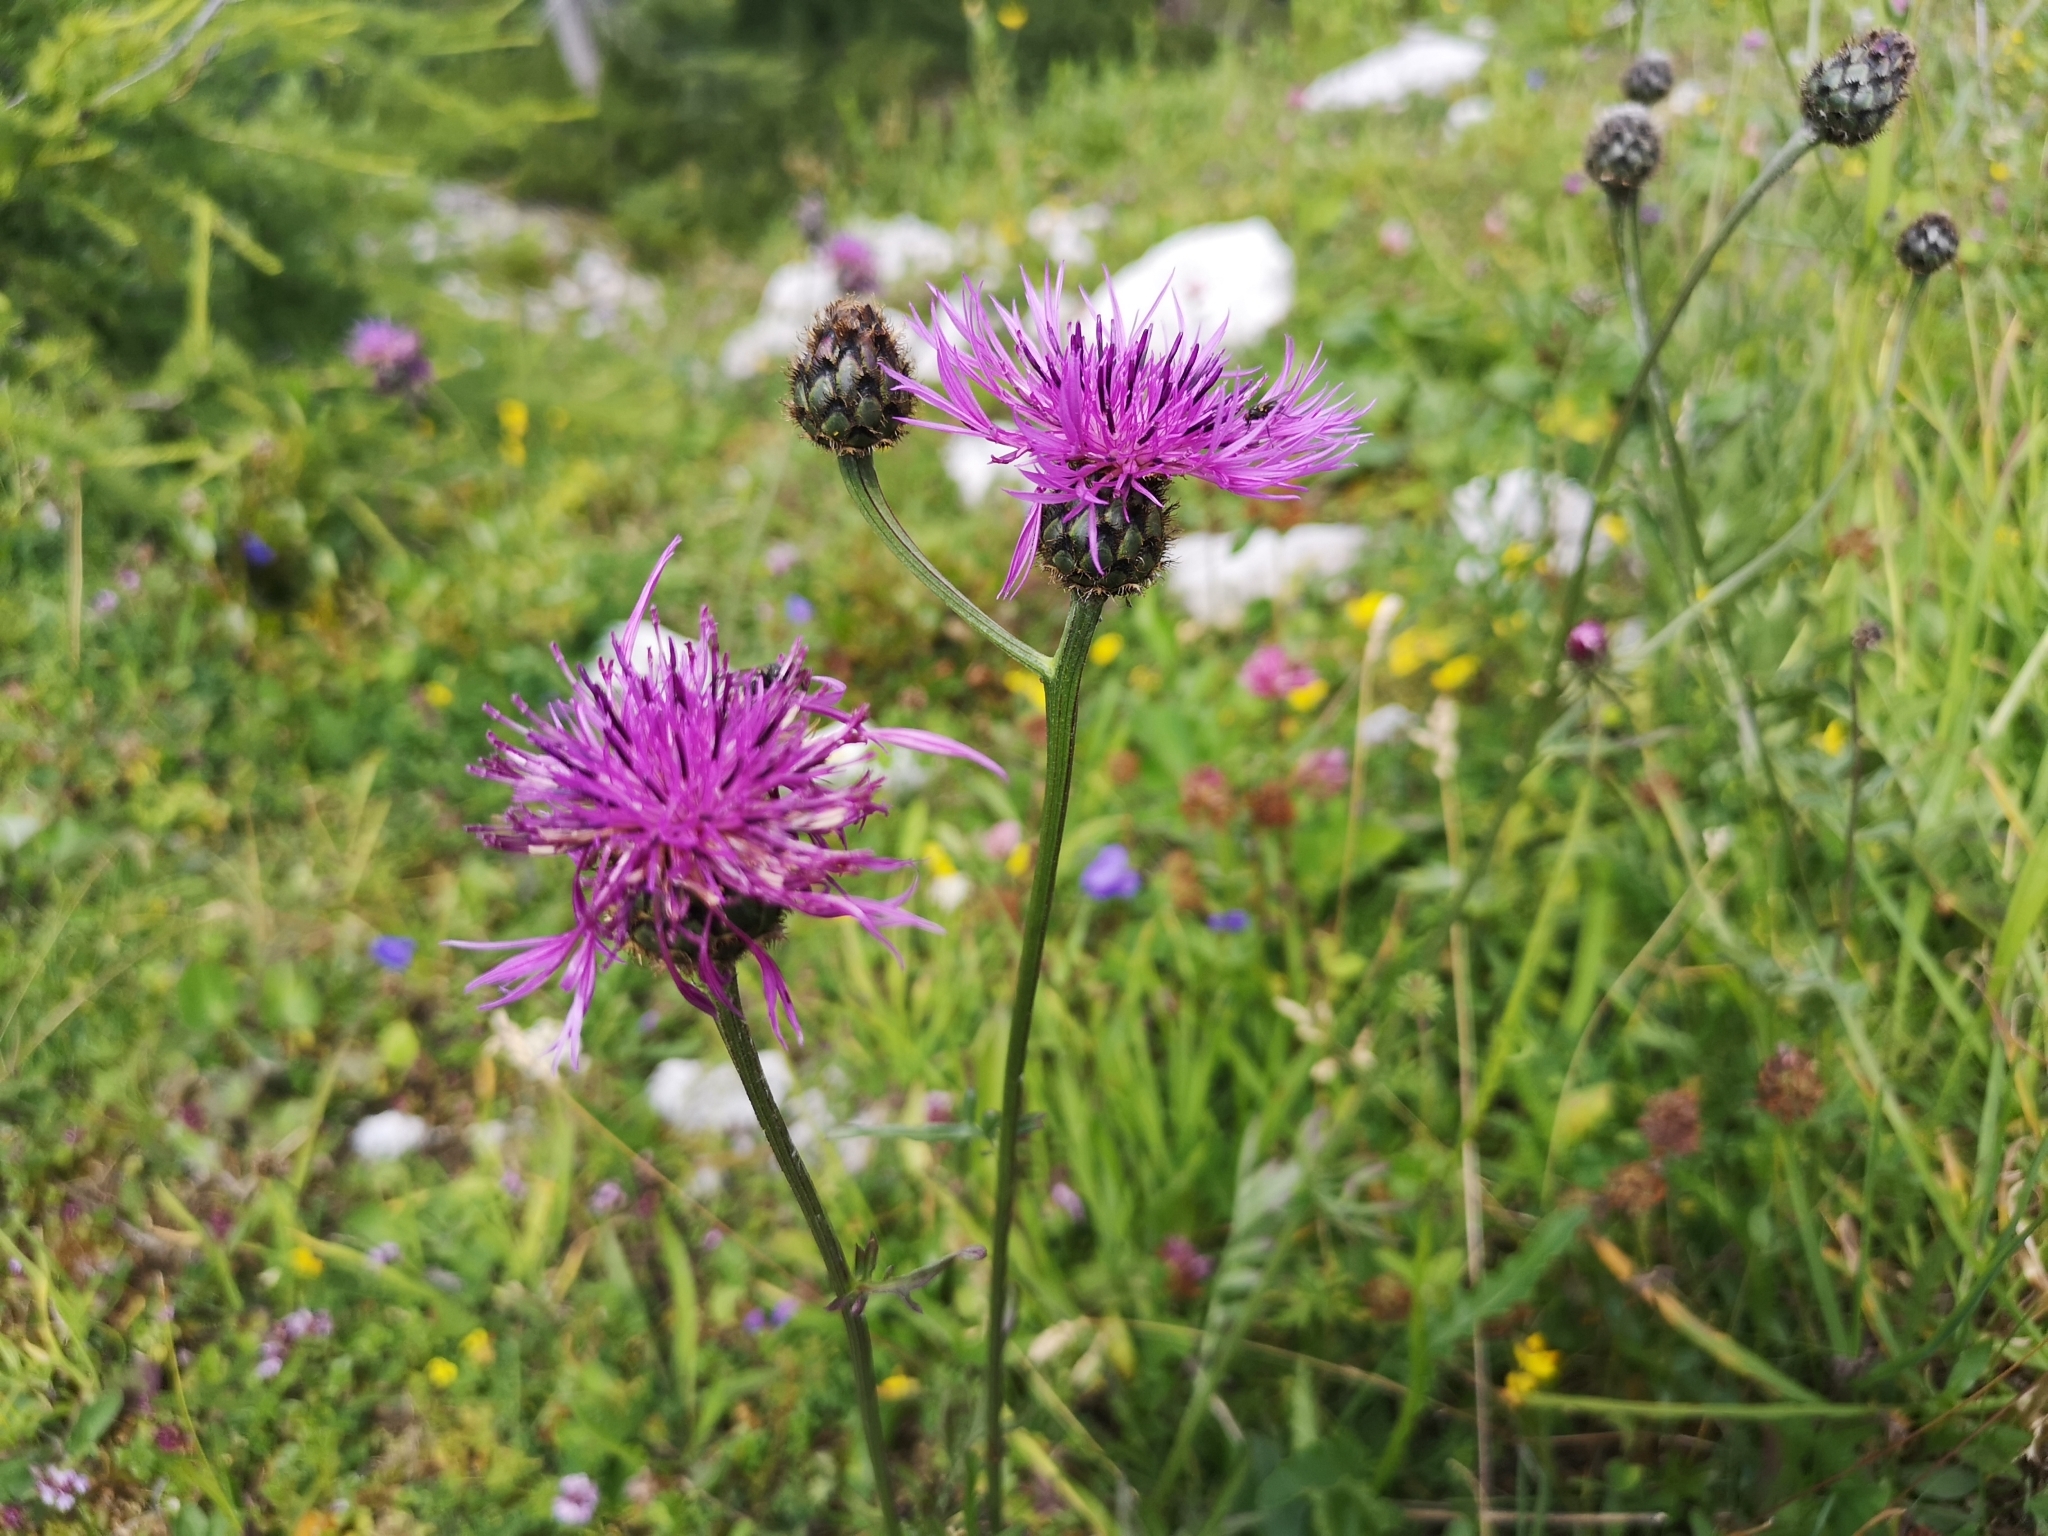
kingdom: Plantae
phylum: Tracheophyta
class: Magnoliopsida
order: Asterales
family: Asteraceae
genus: Centaurea
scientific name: Centaurea scabiosa
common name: Greater knapweed
